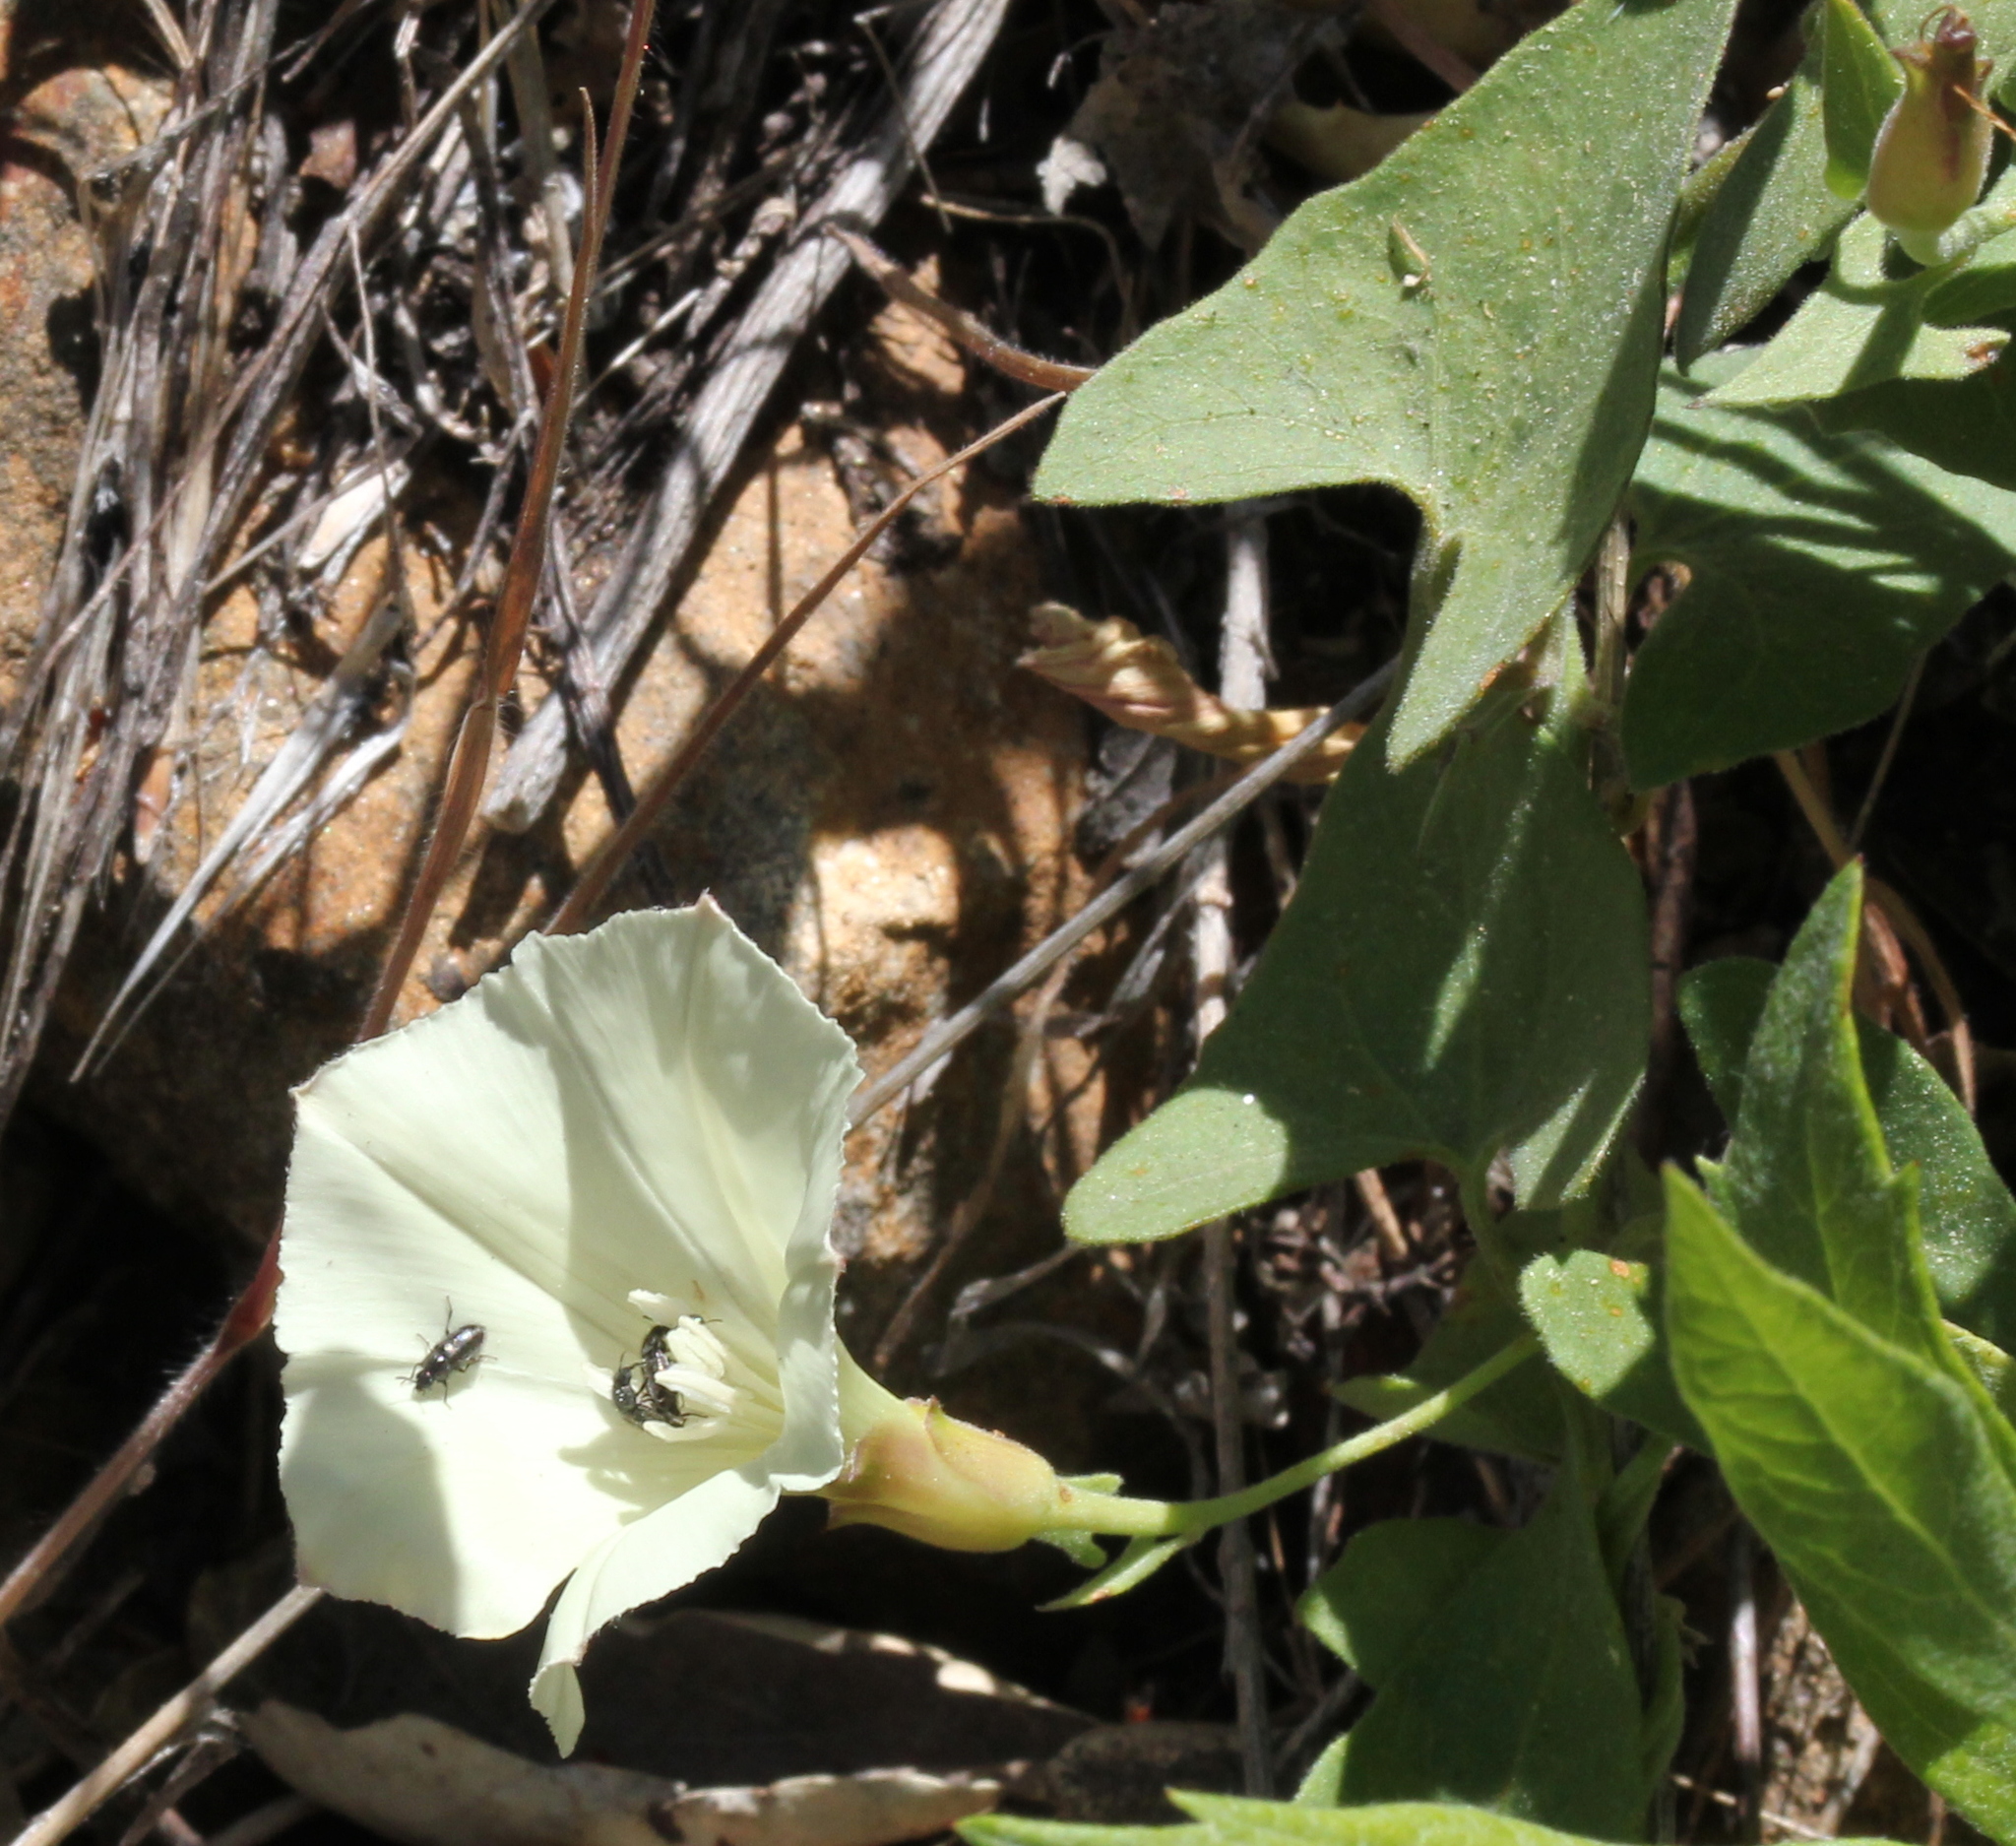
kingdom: Plantae
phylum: Tracheophyta
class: Magnoliopsida
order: Solanales
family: Convolvulaceae
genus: Calystegia
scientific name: Calystegia occidentalis
